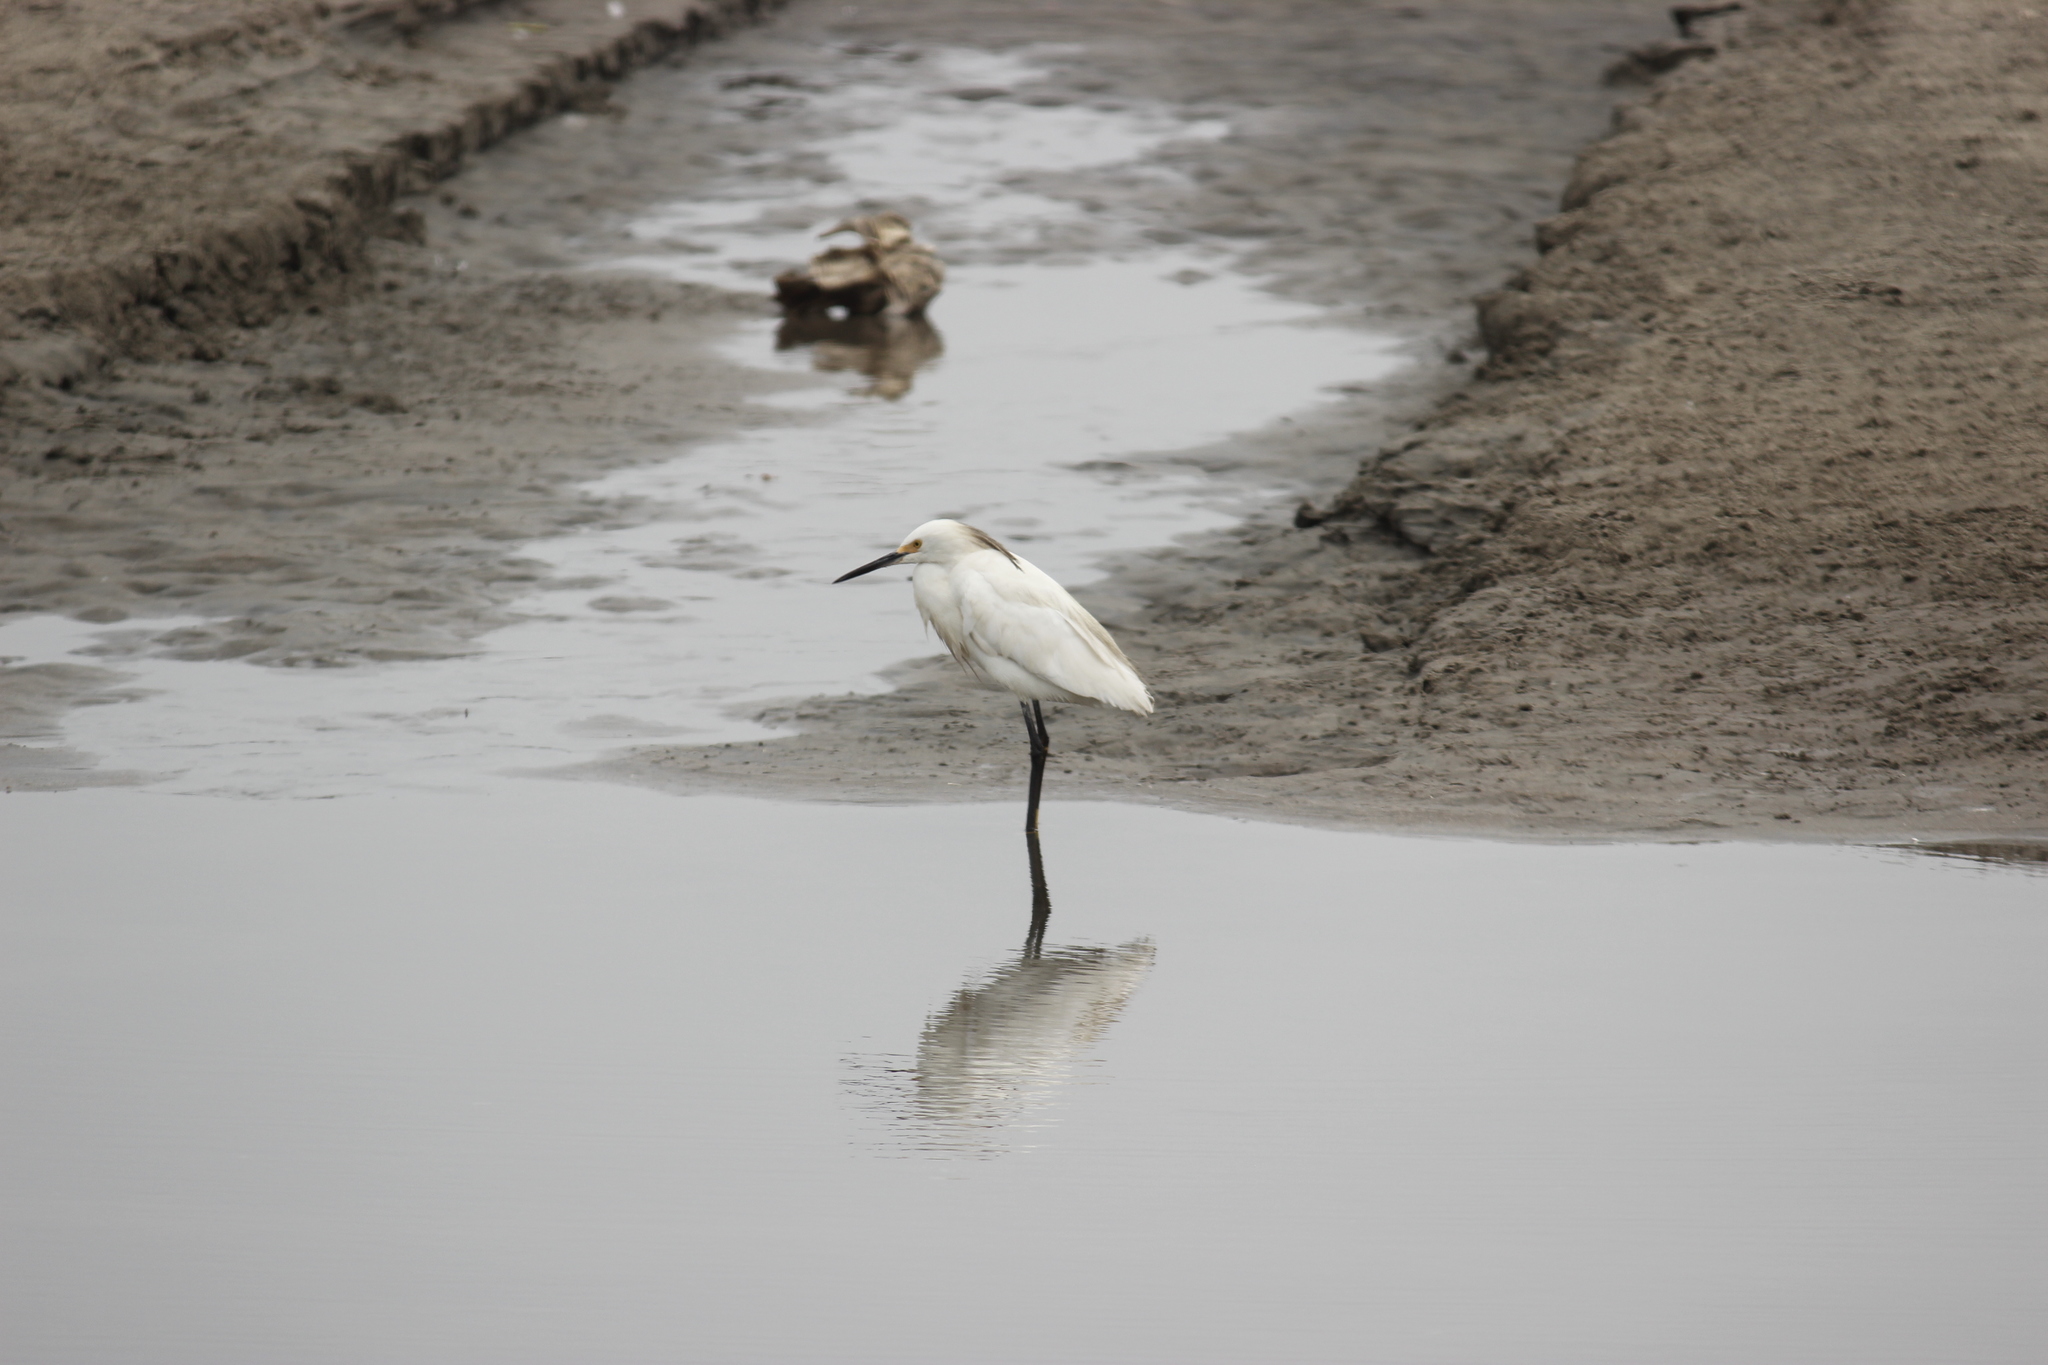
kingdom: Animalia
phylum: Chordata
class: Aves
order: Pelecaniformes
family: Ardeidae
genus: Egretta
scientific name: Egretta thula
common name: Snowy egret
